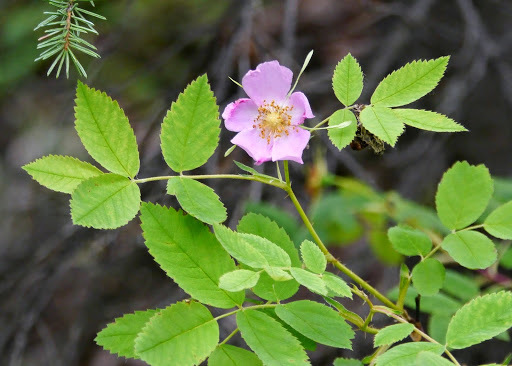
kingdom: Plantae
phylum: Tracheophyta
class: Magnoliopsida
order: Rosales
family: Rosaceae
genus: Rosa
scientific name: Rosa nutkana
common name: Nootka rose
